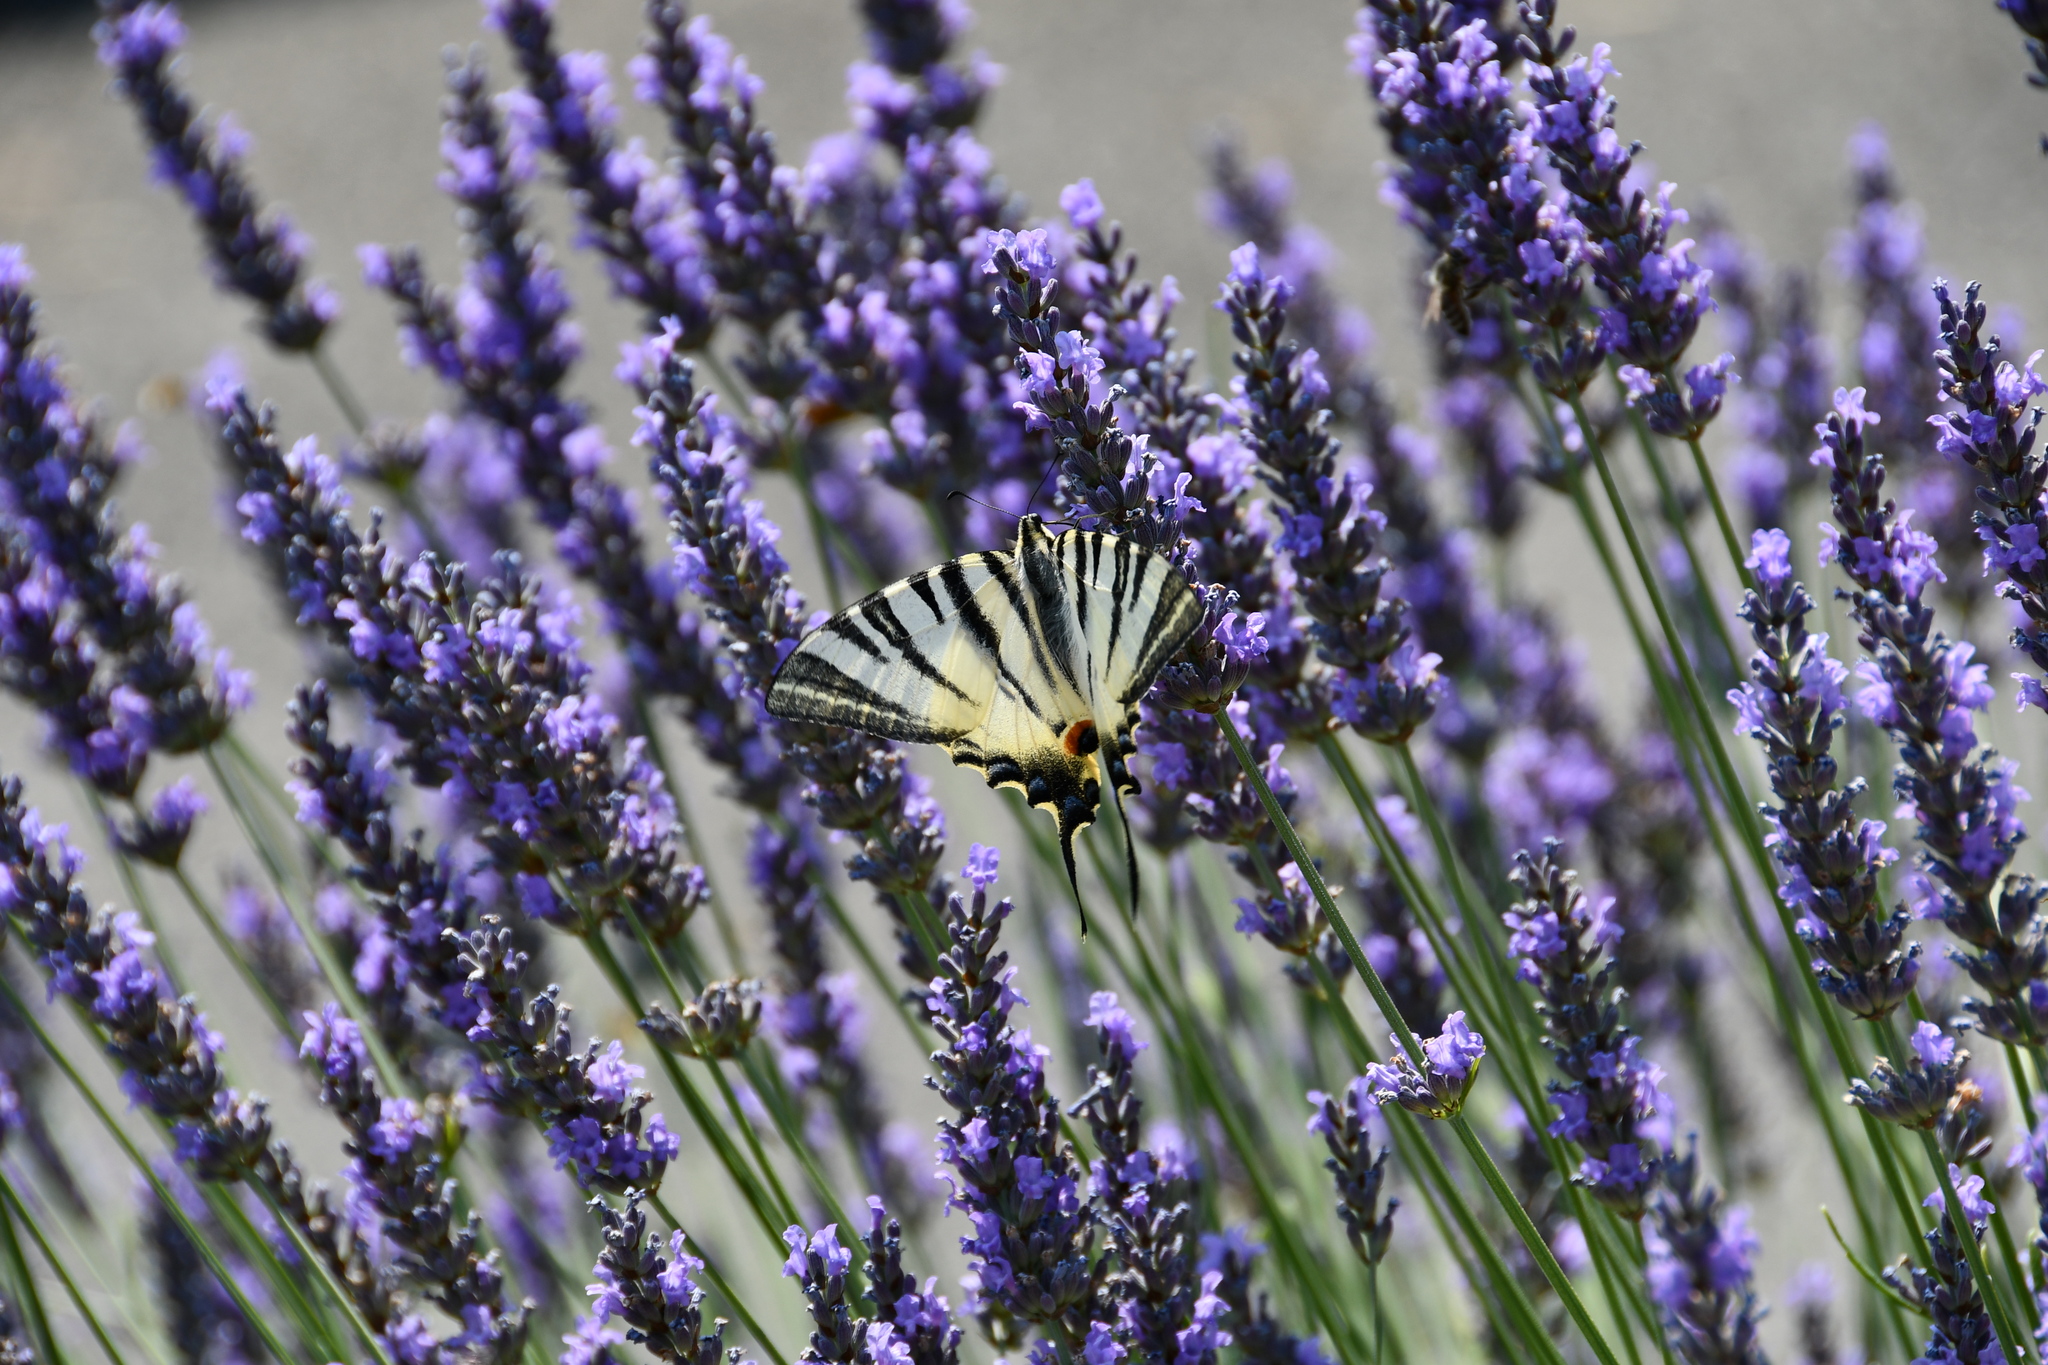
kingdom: Animalia
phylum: Arthropoda
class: Insecta
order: Lepidoptera
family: Papilionidae
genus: Iphiclides
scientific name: Iphiclides podalirius
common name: Scarce swallowtail
